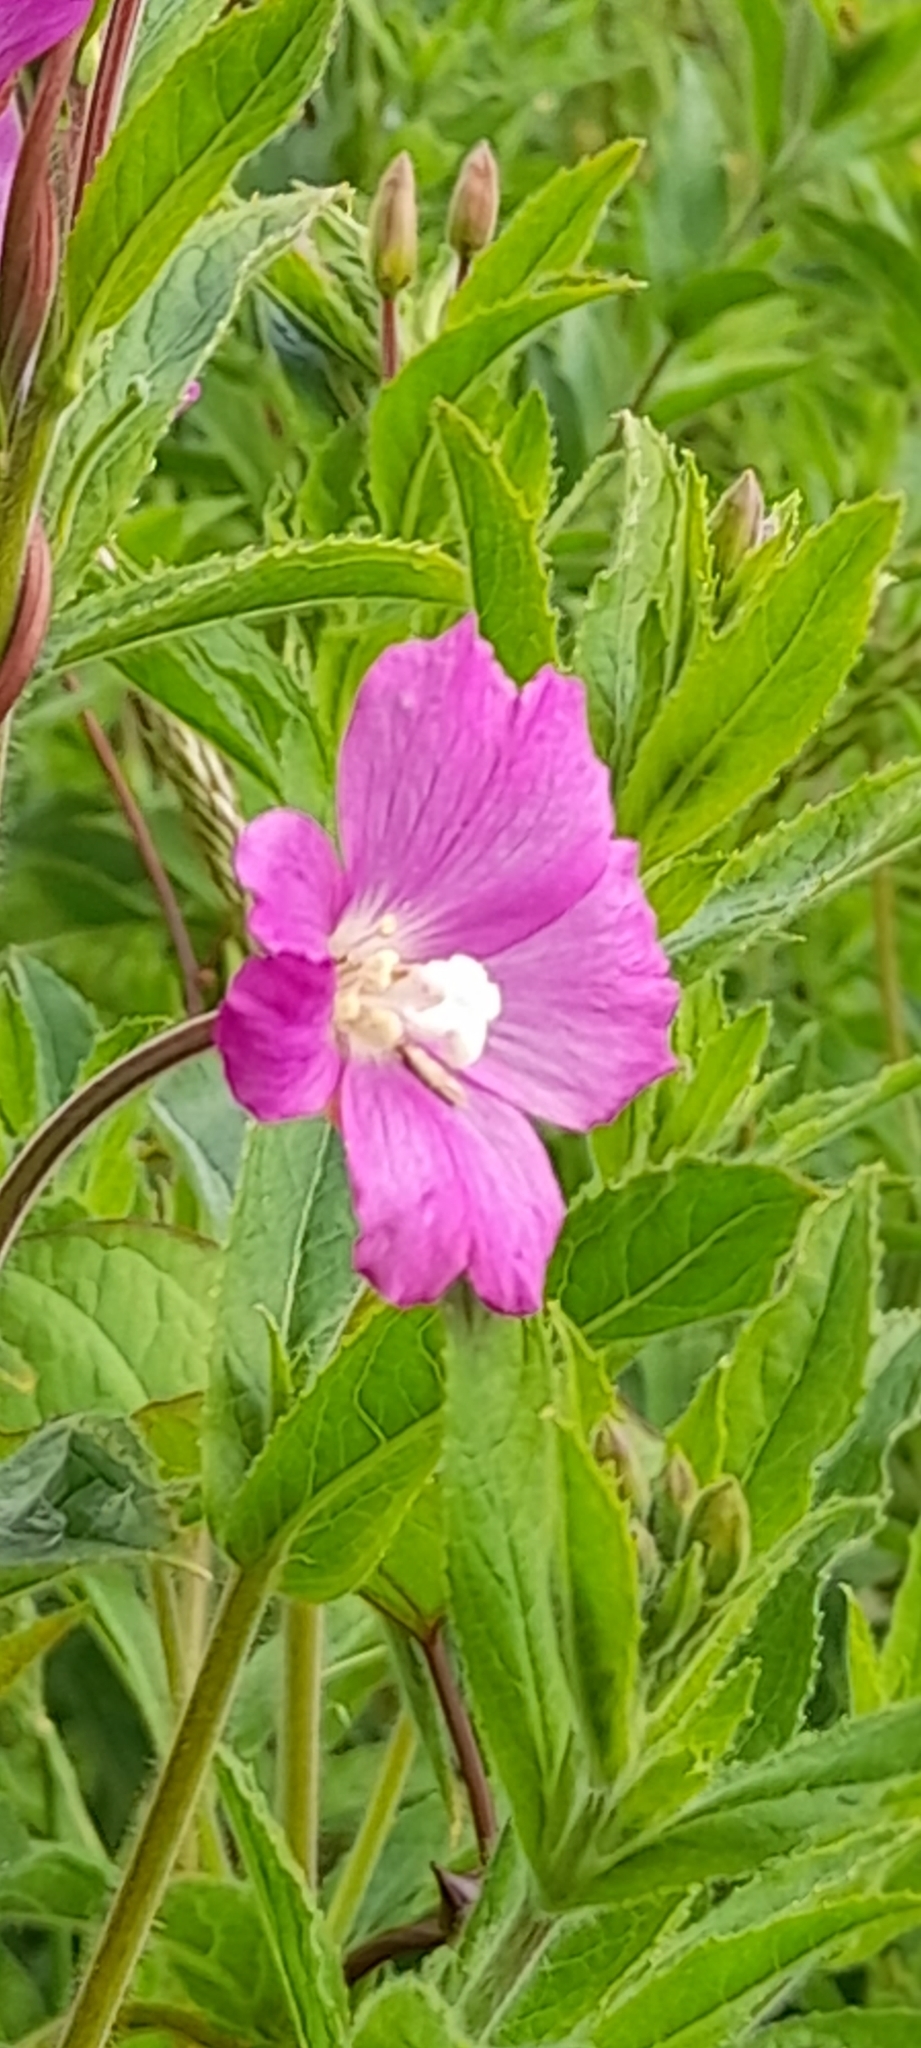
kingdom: Plantae
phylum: Tracheophyta
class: Magnoliopsida
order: Myrtales
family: Onagraceae
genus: Epilobium
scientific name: Epilobium hirsutum
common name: Great willowherb
